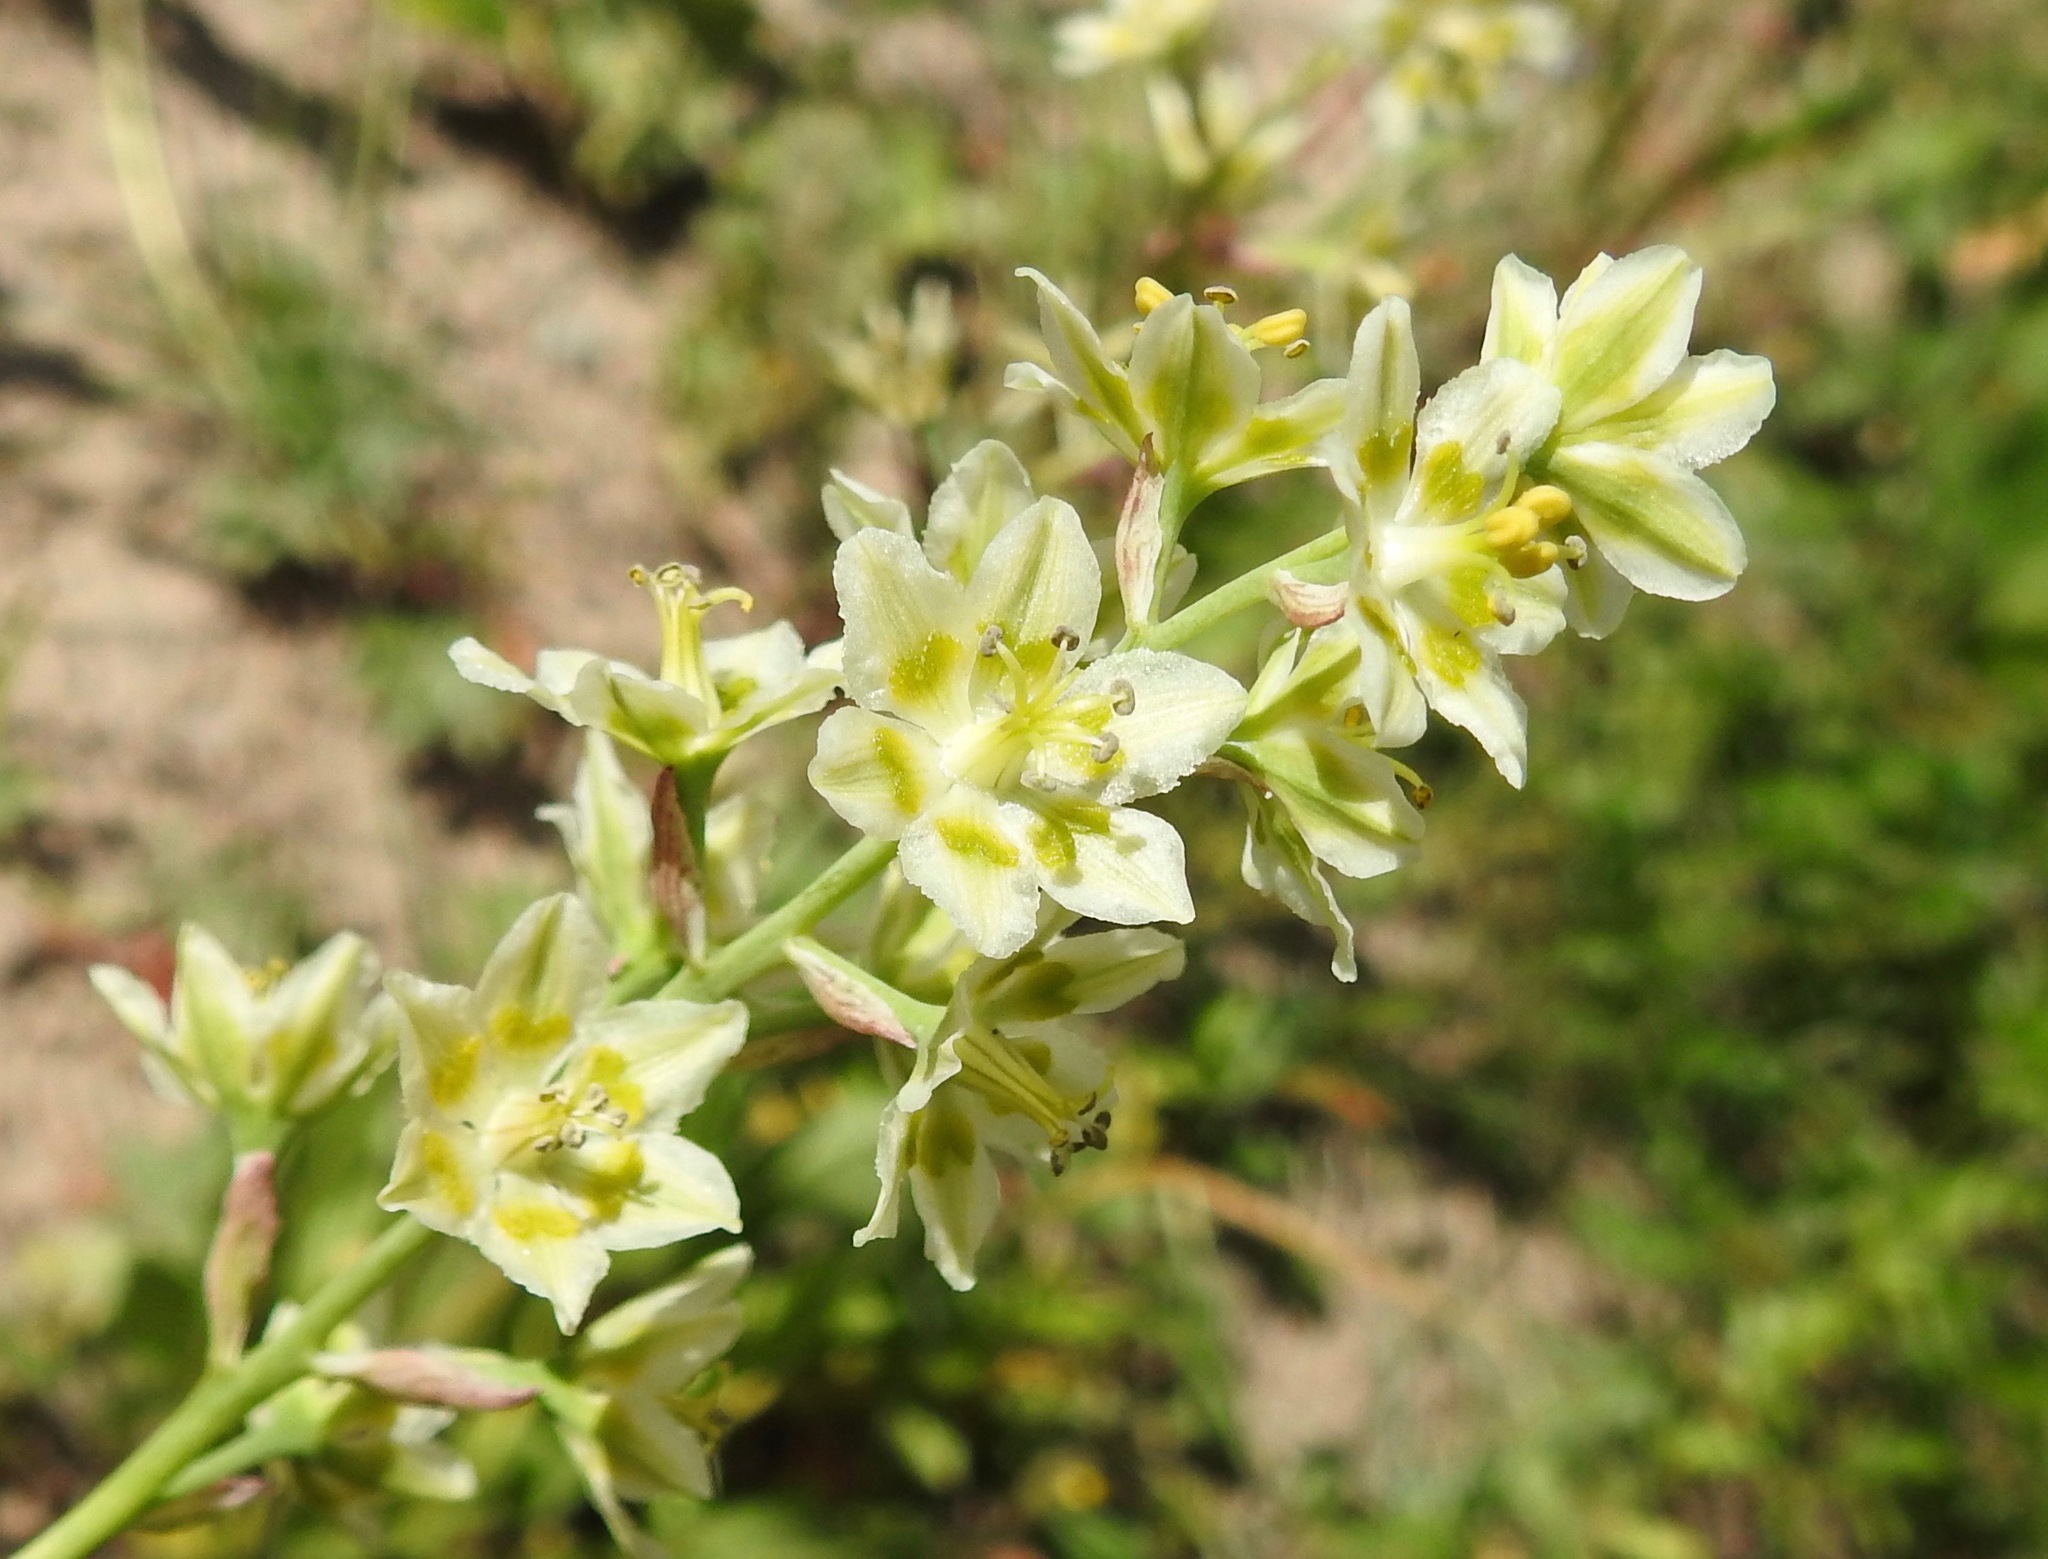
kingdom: Plantae
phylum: Tracheophyta
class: Liliopsida
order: Liliales
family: Melanthiaceae
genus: Anticlea
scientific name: Anticlea elegans
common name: Mountain death camas
